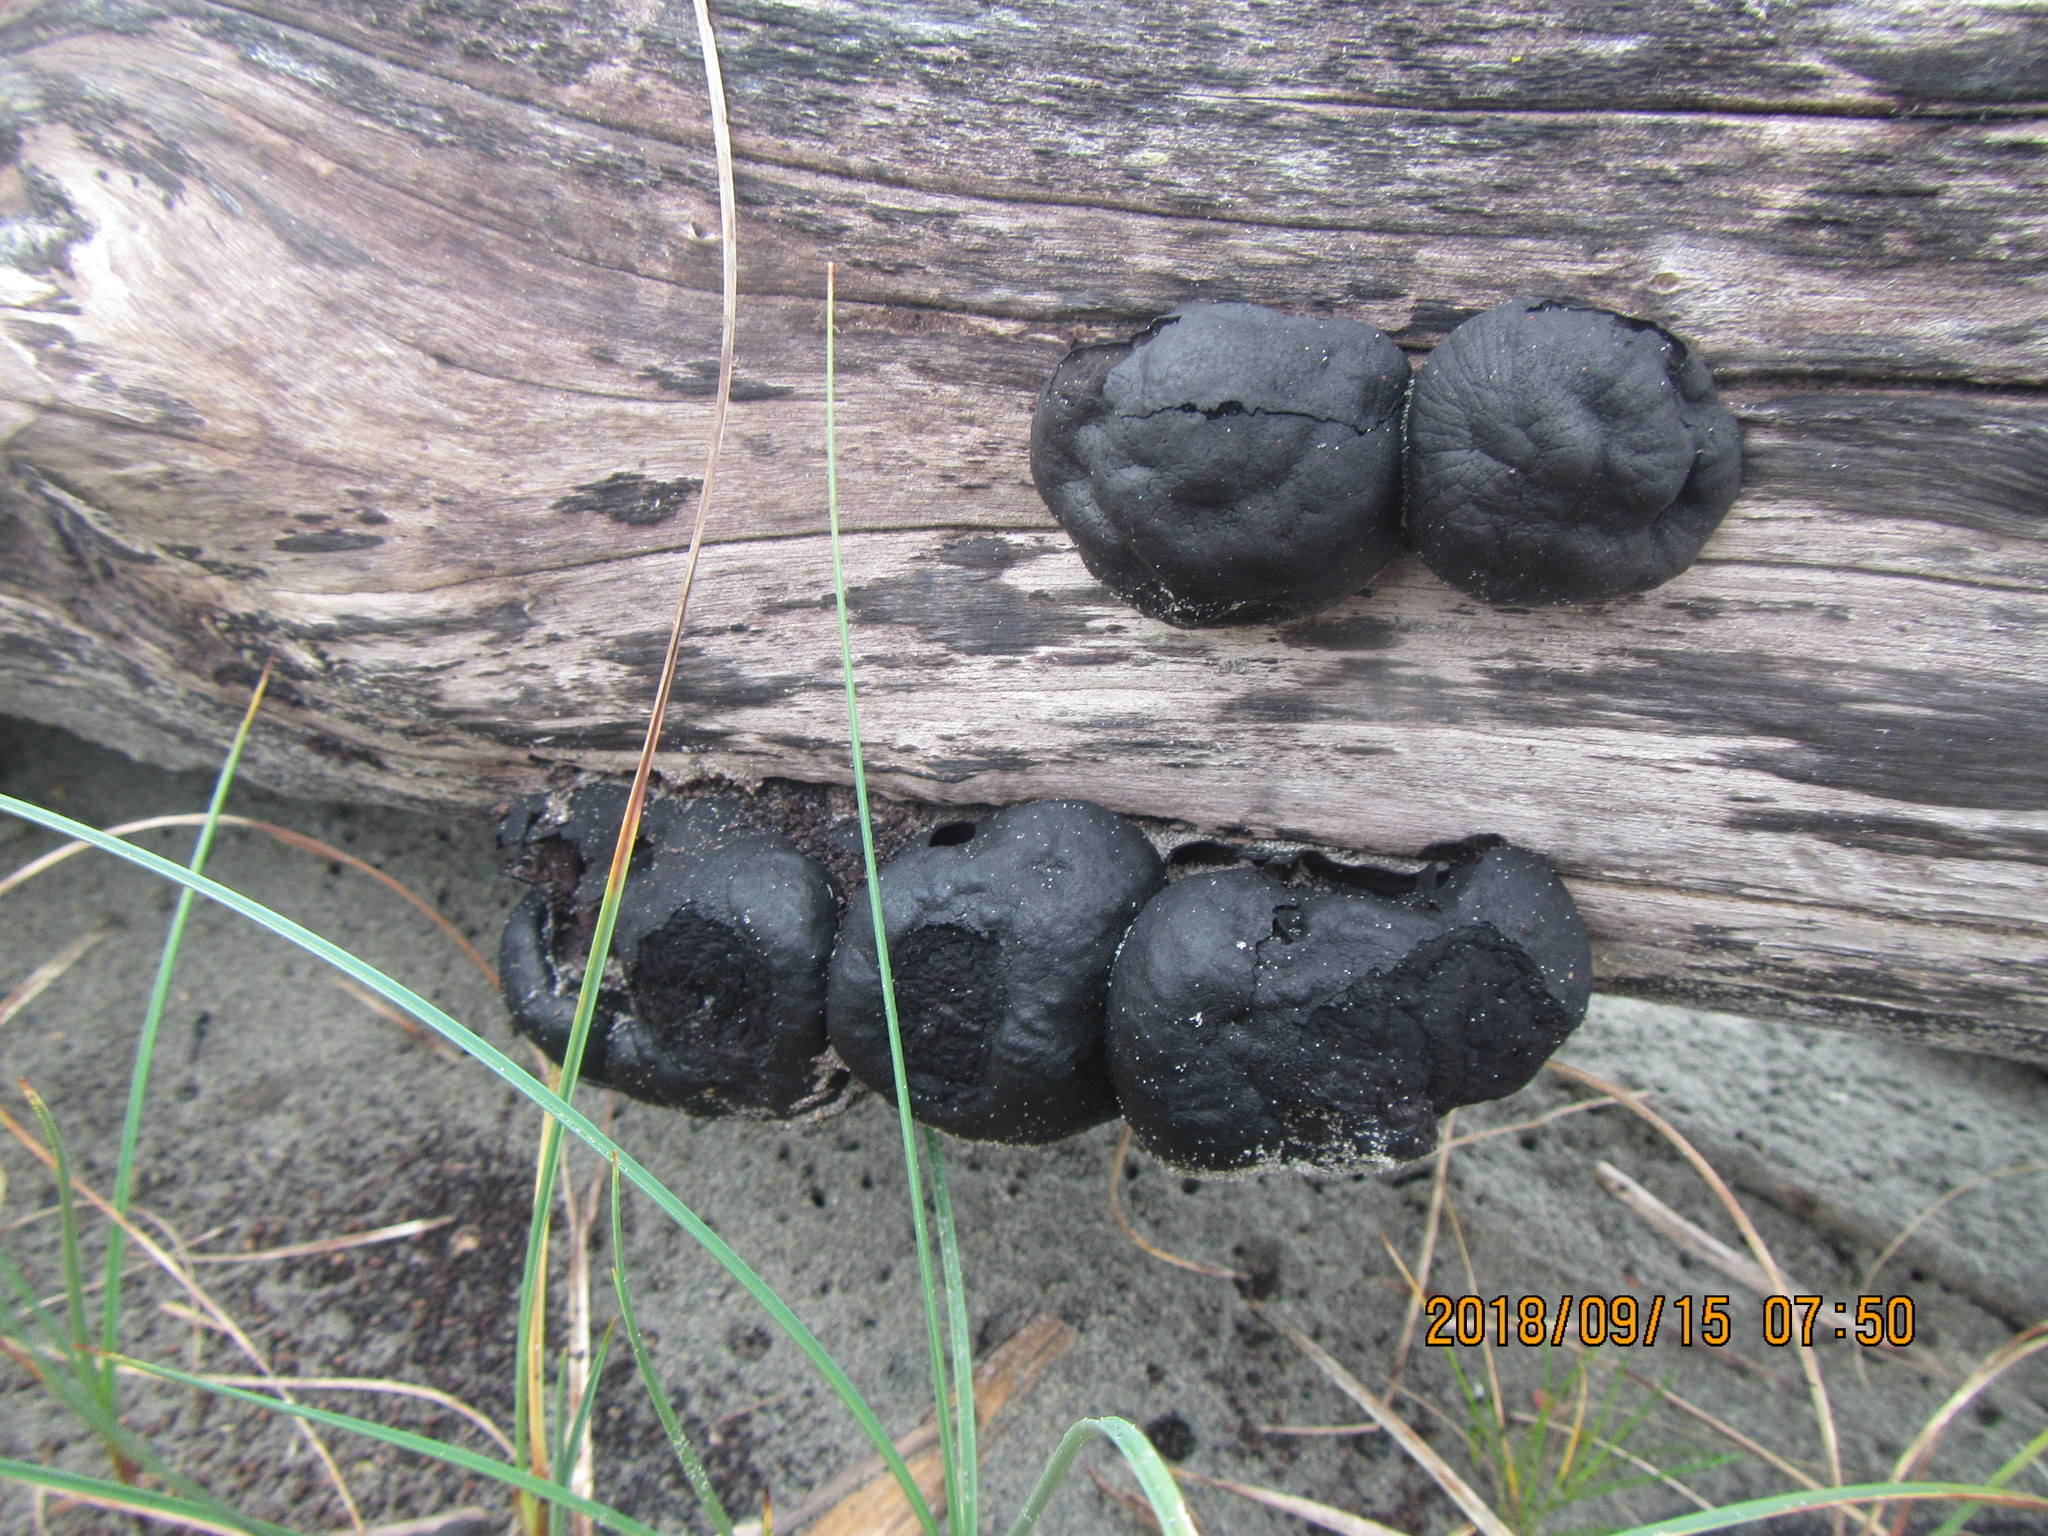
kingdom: Fungi
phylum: Ascomycota
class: Sordariomycetes
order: Xylariales
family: Hypoxylaceae
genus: Daldinia
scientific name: Daldinia
